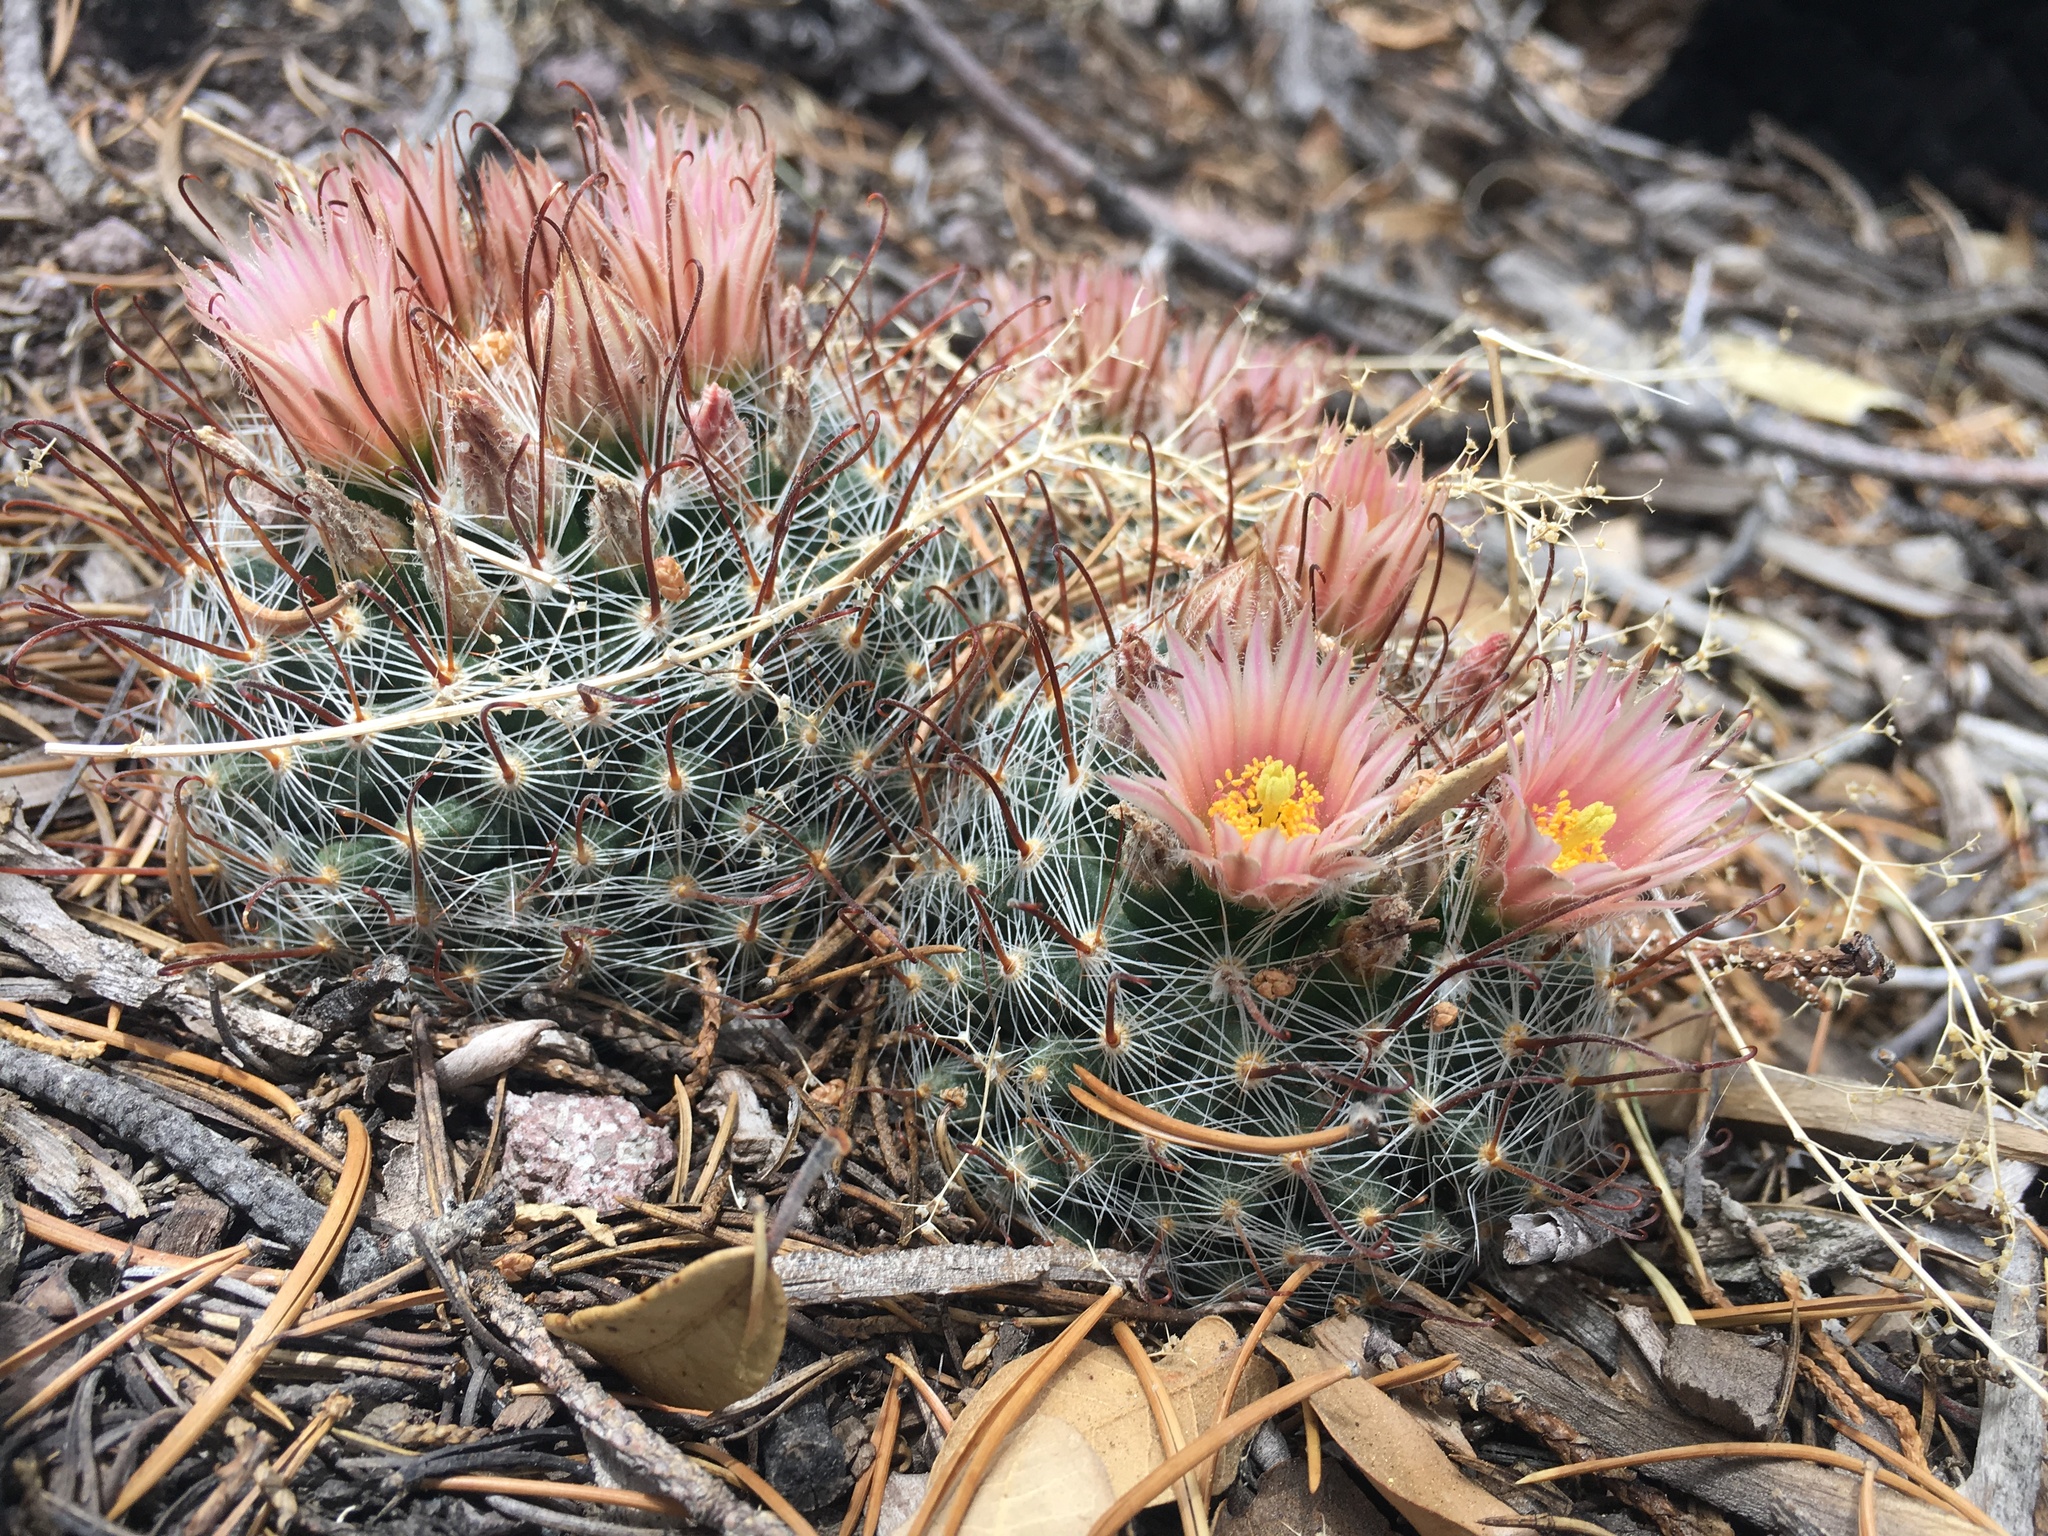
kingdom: Plantae
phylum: Tracheophyta
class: Magnoliopsida
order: Caryophyllales
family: Cactaceae
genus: Cochemiea
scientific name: Cochemiea barbata
